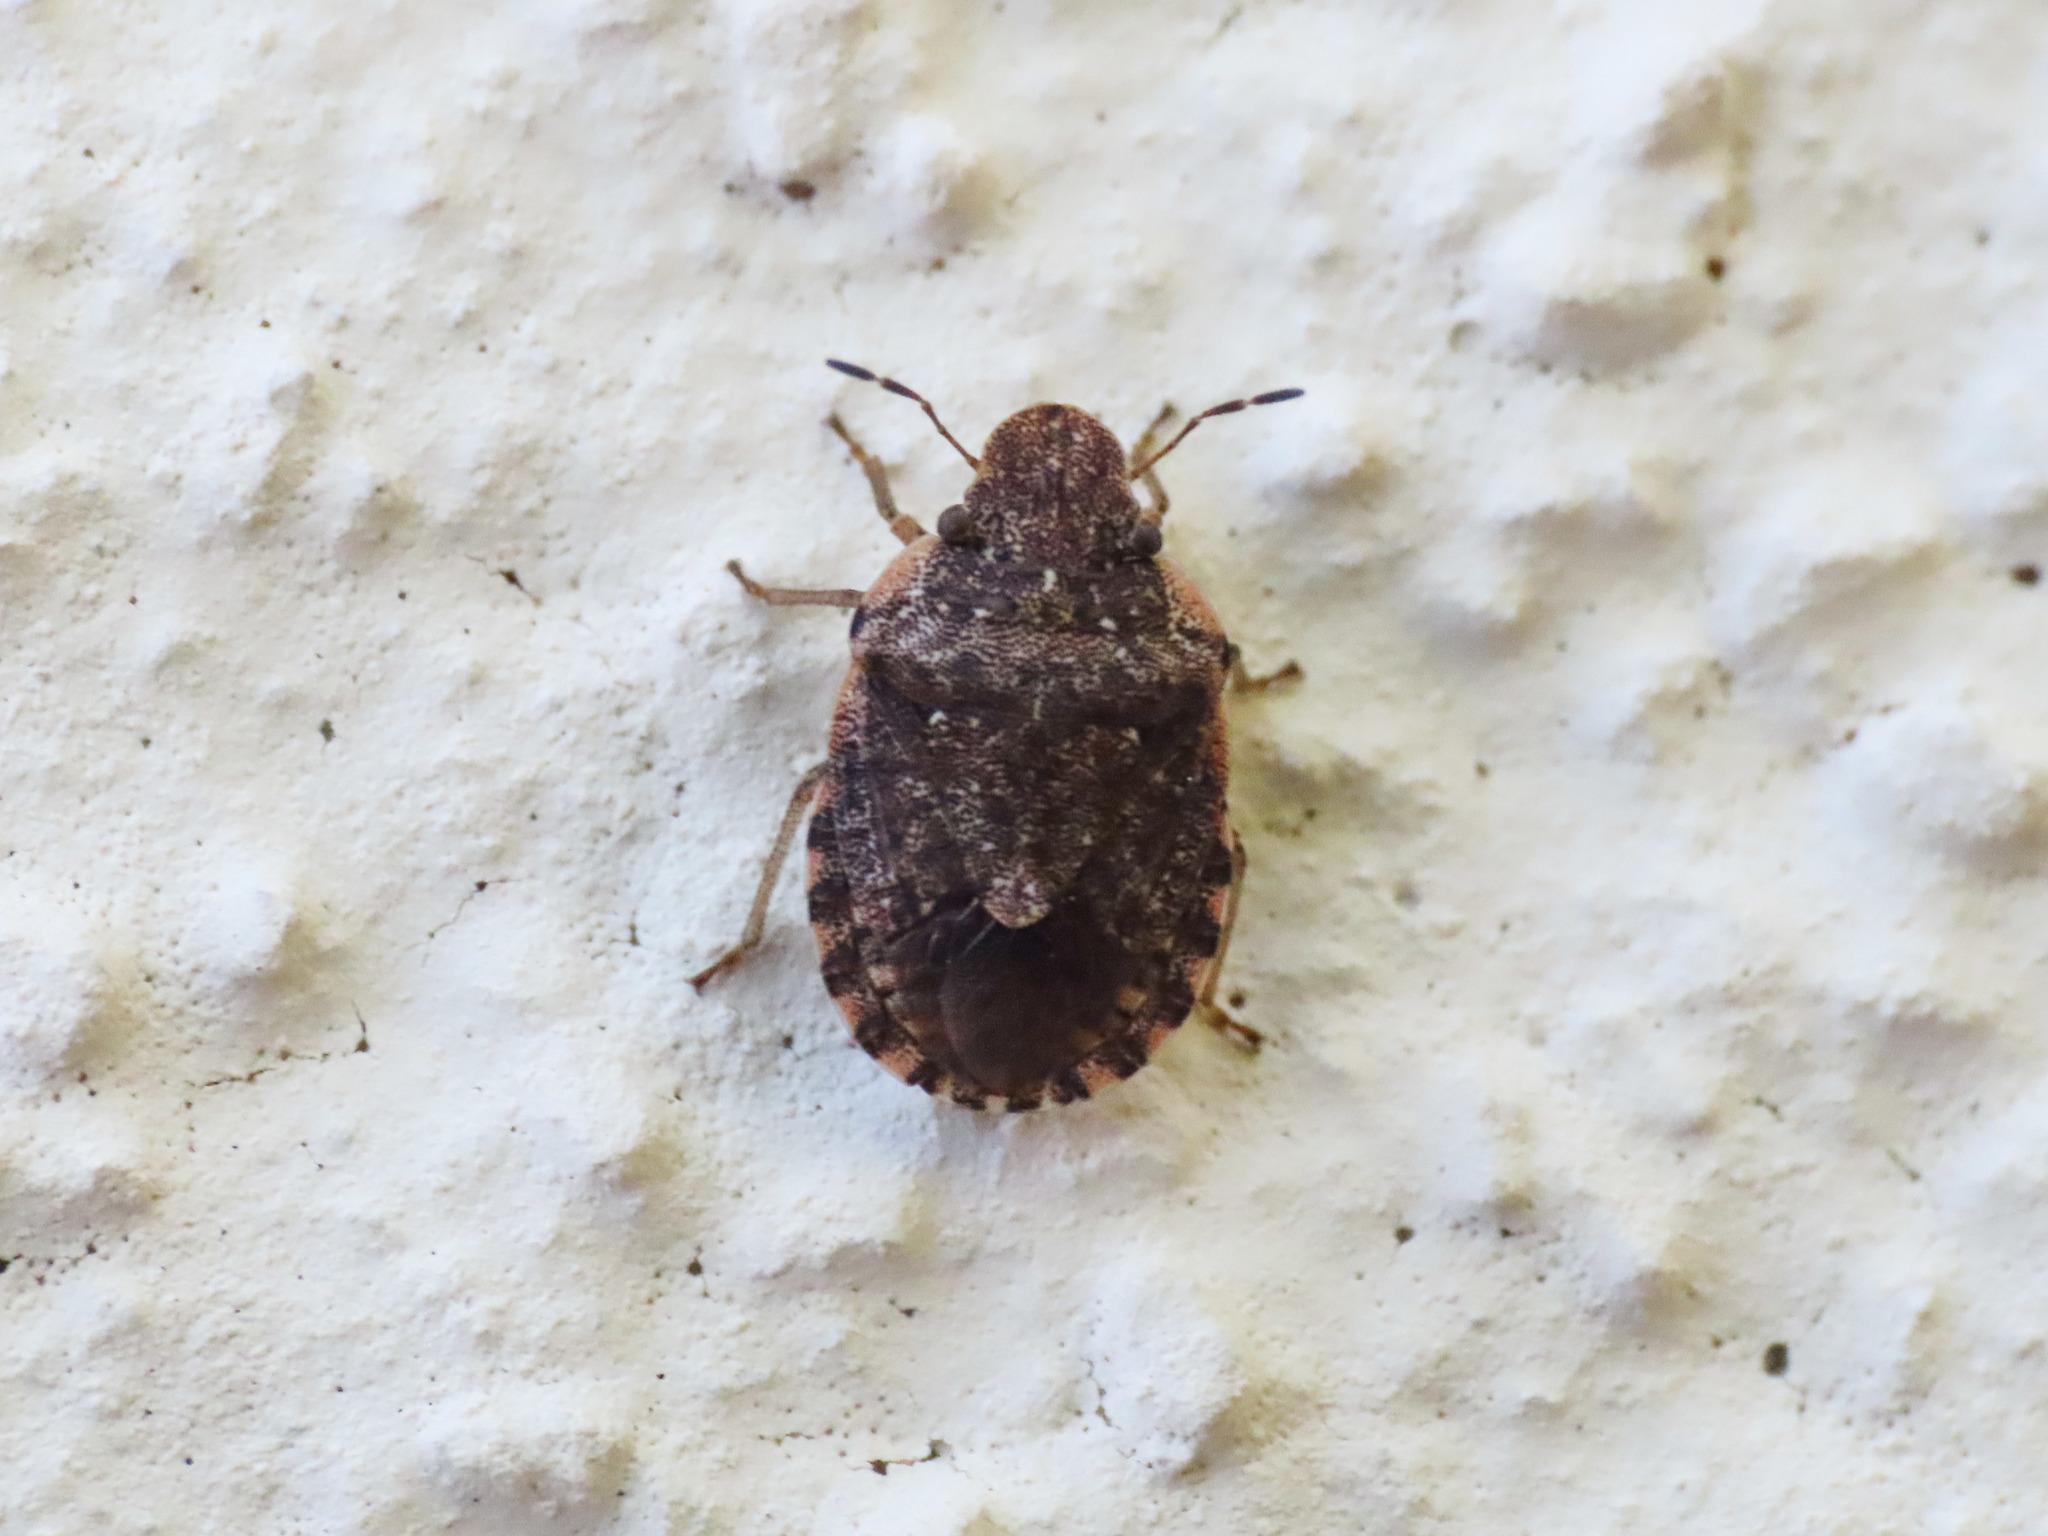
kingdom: Animalia
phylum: Arthropoda
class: Insecta
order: Hemiptera
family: Pentatomidae
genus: Sciocoris
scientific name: Sciocoris sideritidis
